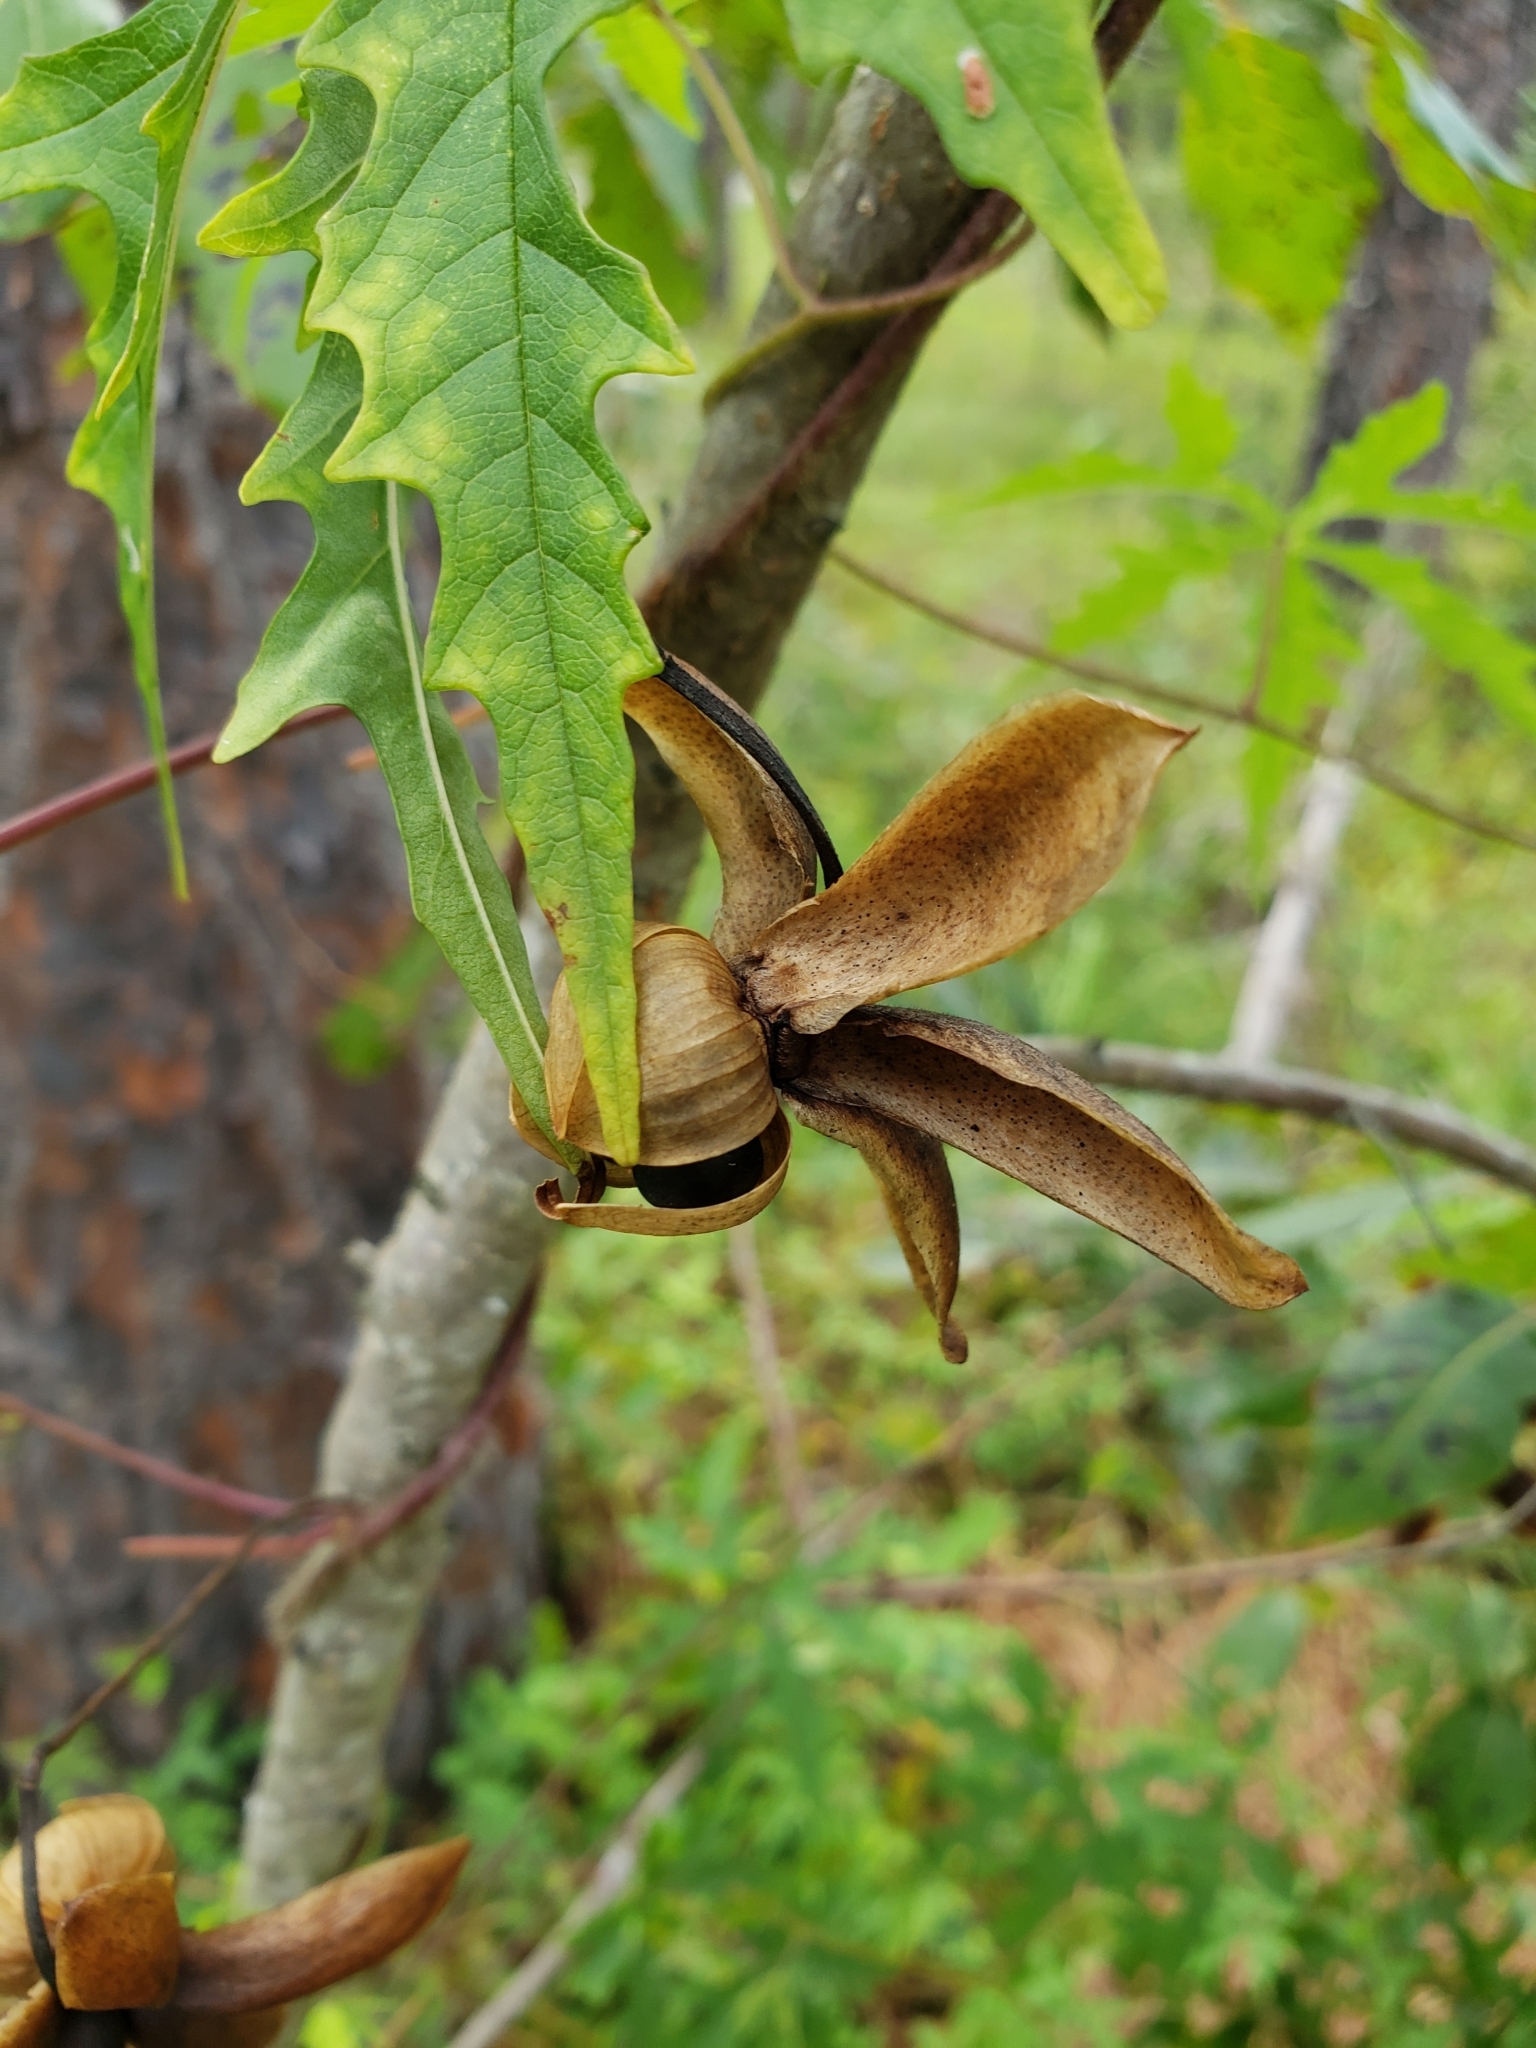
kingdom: Plantae
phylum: Tracheophyta
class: Magnoliopsida
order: Solanales
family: Convolvulaceae
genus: Distimake
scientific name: Distimake dissectus
